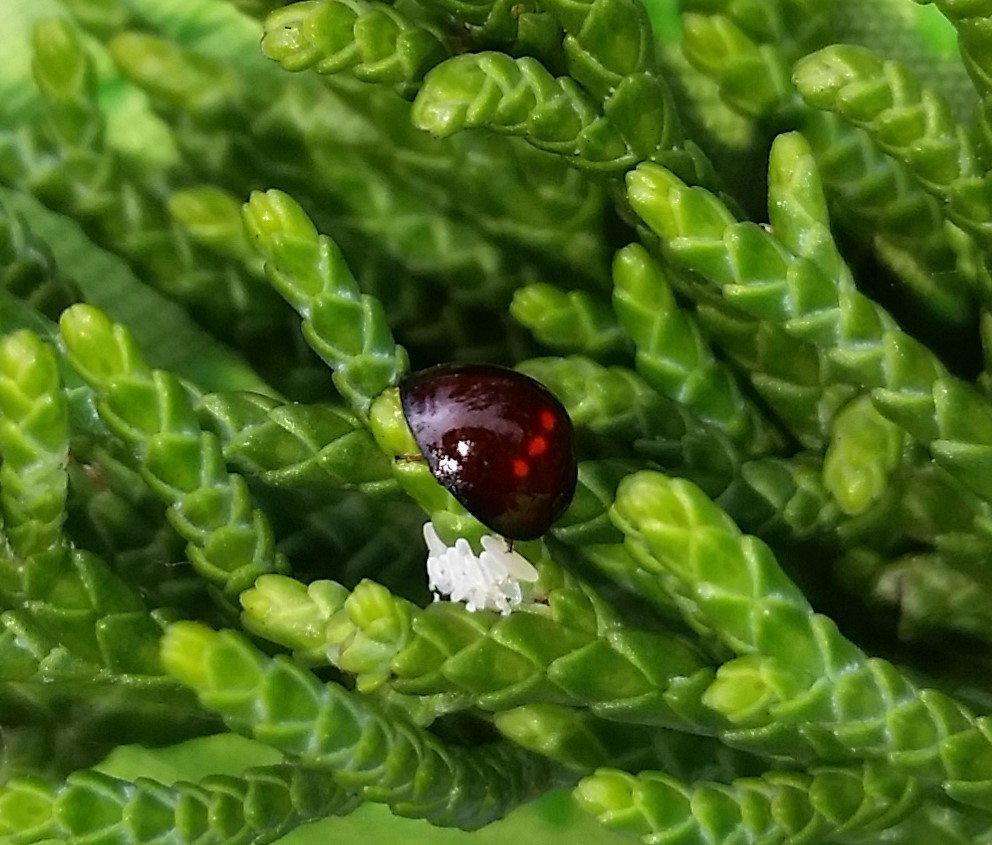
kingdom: Animalia
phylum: Arthropoda
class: Insecta
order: Coleoptera
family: Coccinellidae
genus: Chilocorus
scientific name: Chilocorus bipustulatus
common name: Heather ladybird
